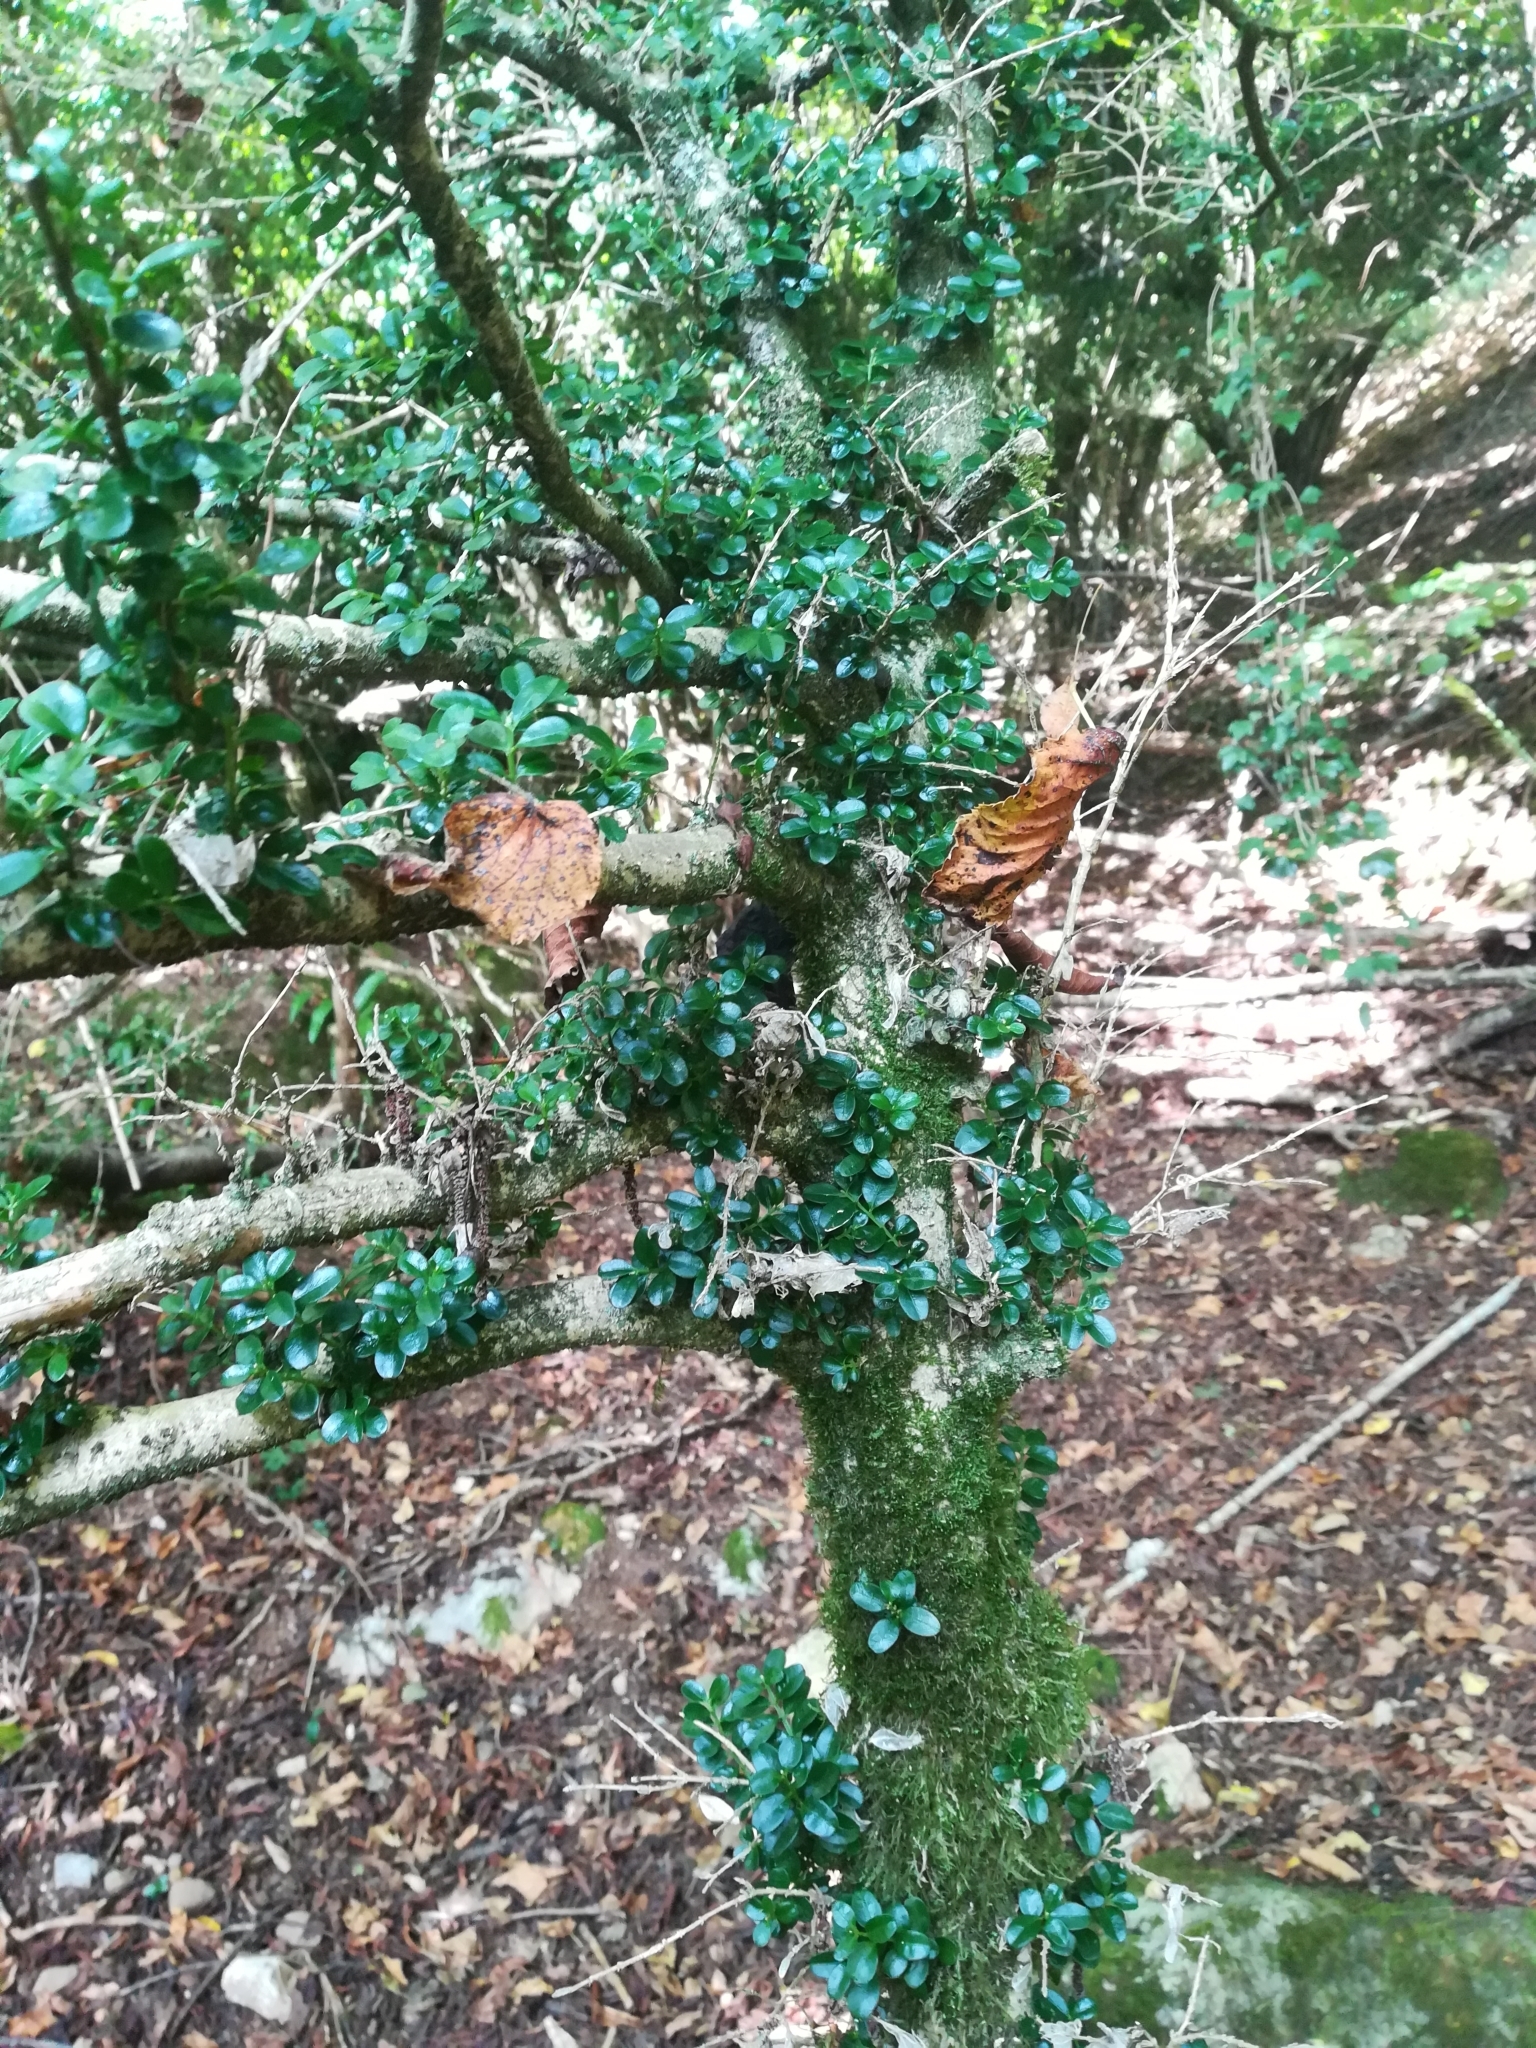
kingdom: Plantae
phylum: Tracheophyta
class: Magnoliopsida
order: Buxales
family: Buxaceae
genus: Buxus
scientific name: Buxus sempervirens
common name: Box
